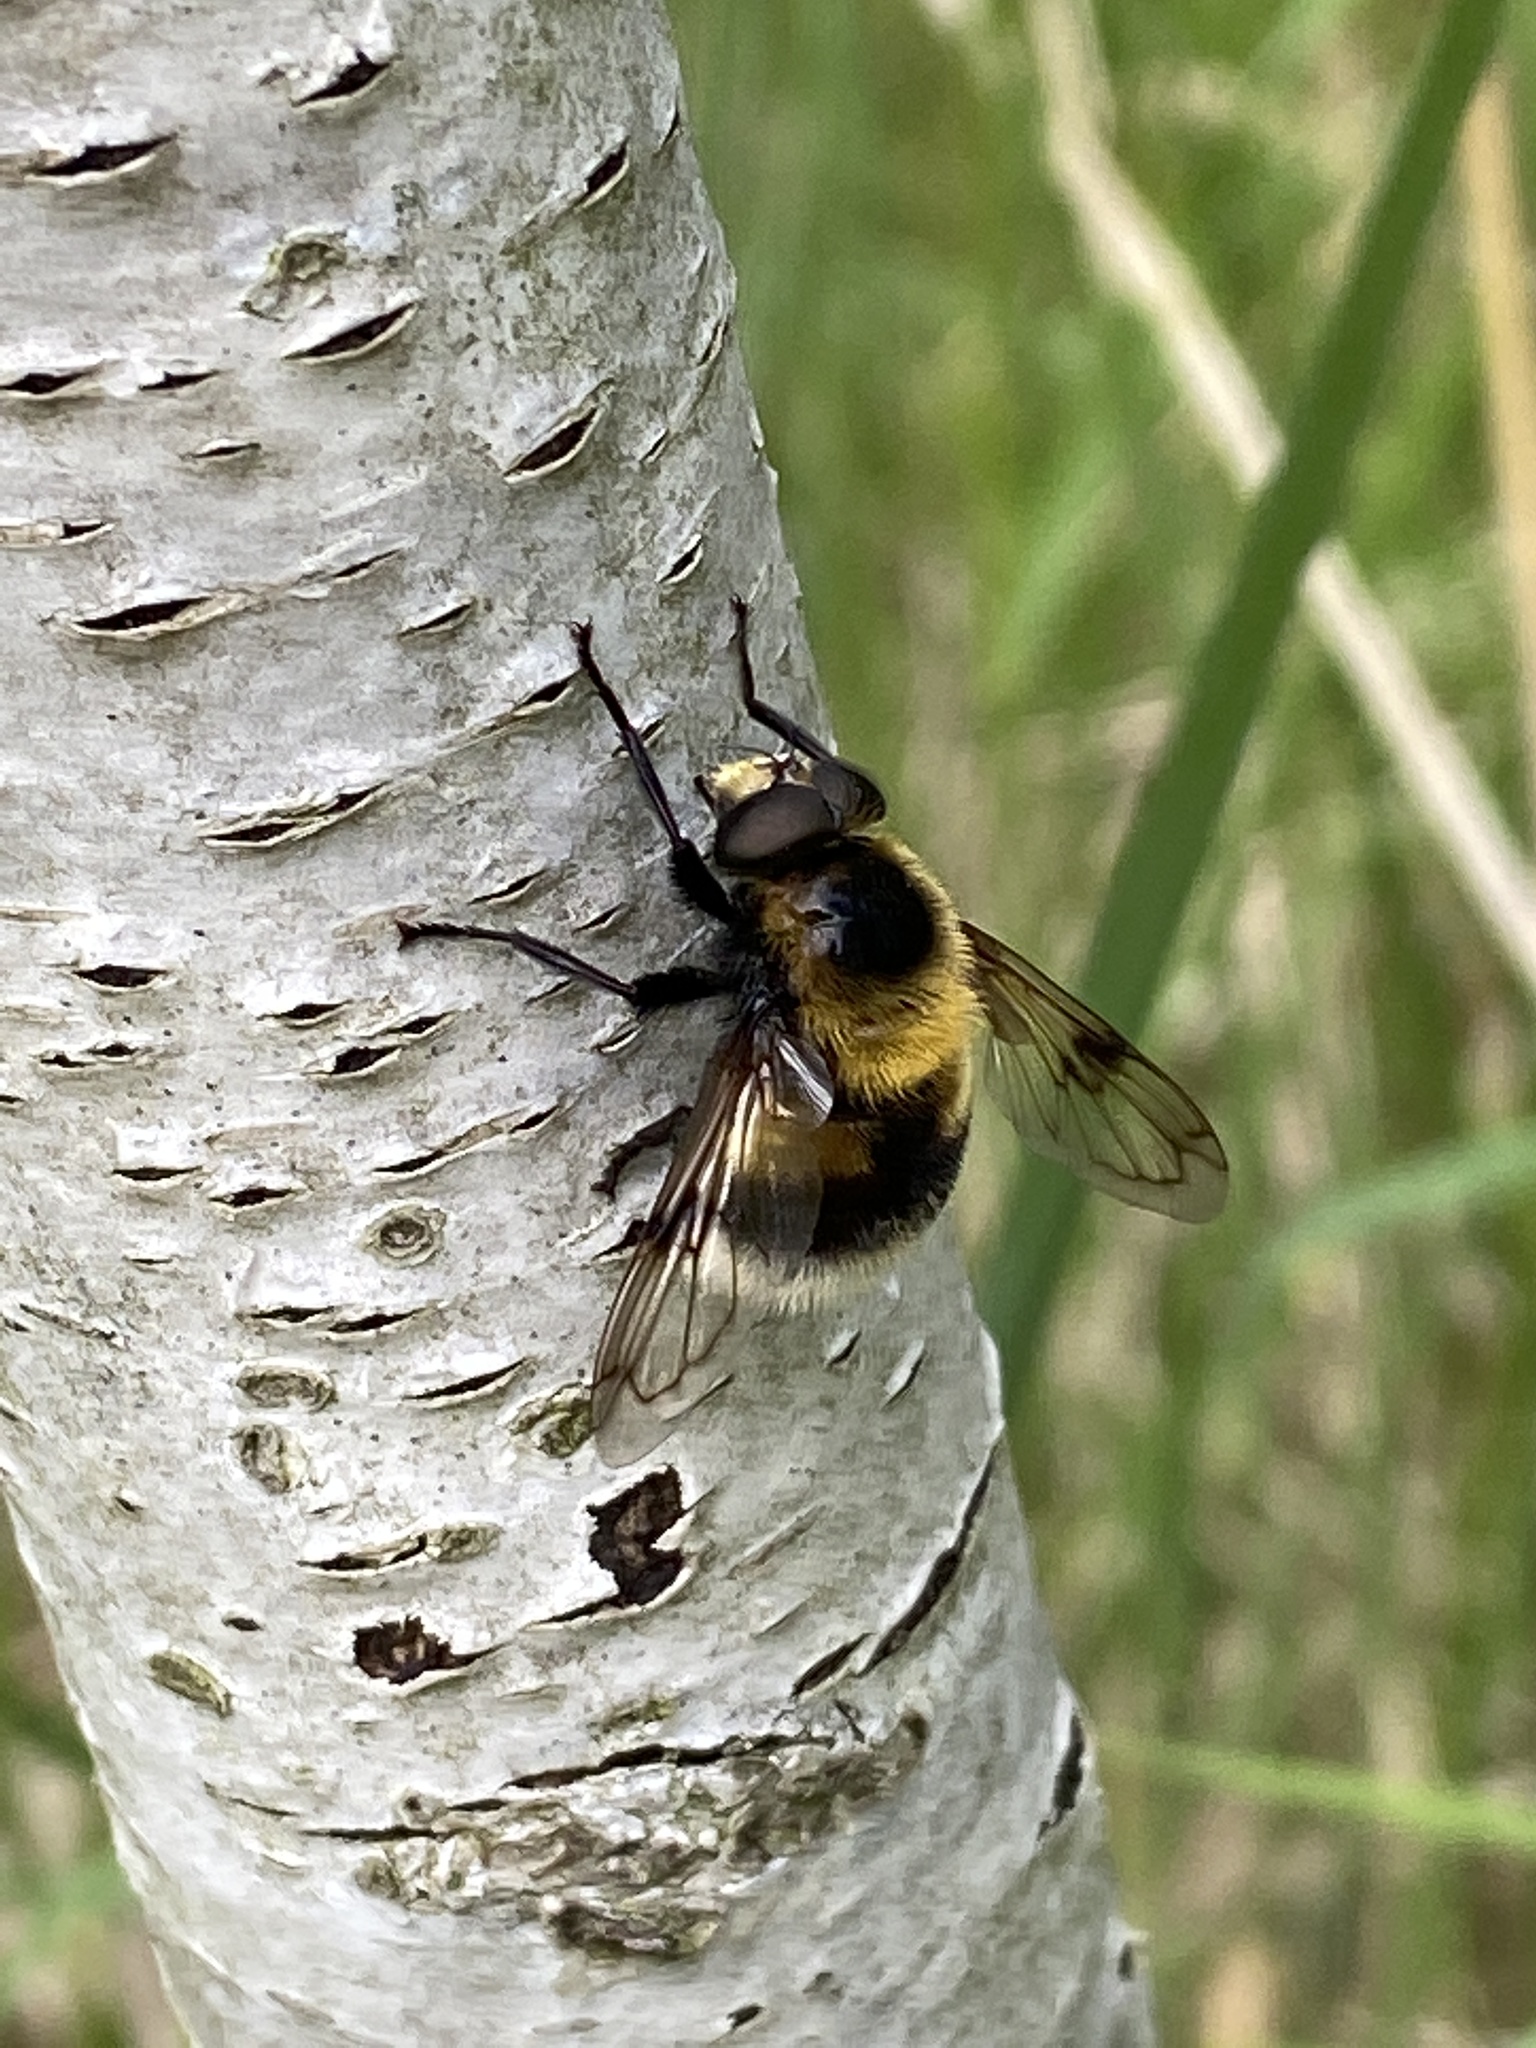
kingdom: Animalia
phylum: Arthropoda
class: Insecta
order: Diptera
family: Syrphidae
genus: Volucella
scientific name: Volucella bombylans
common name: Bumble bee hover fly
